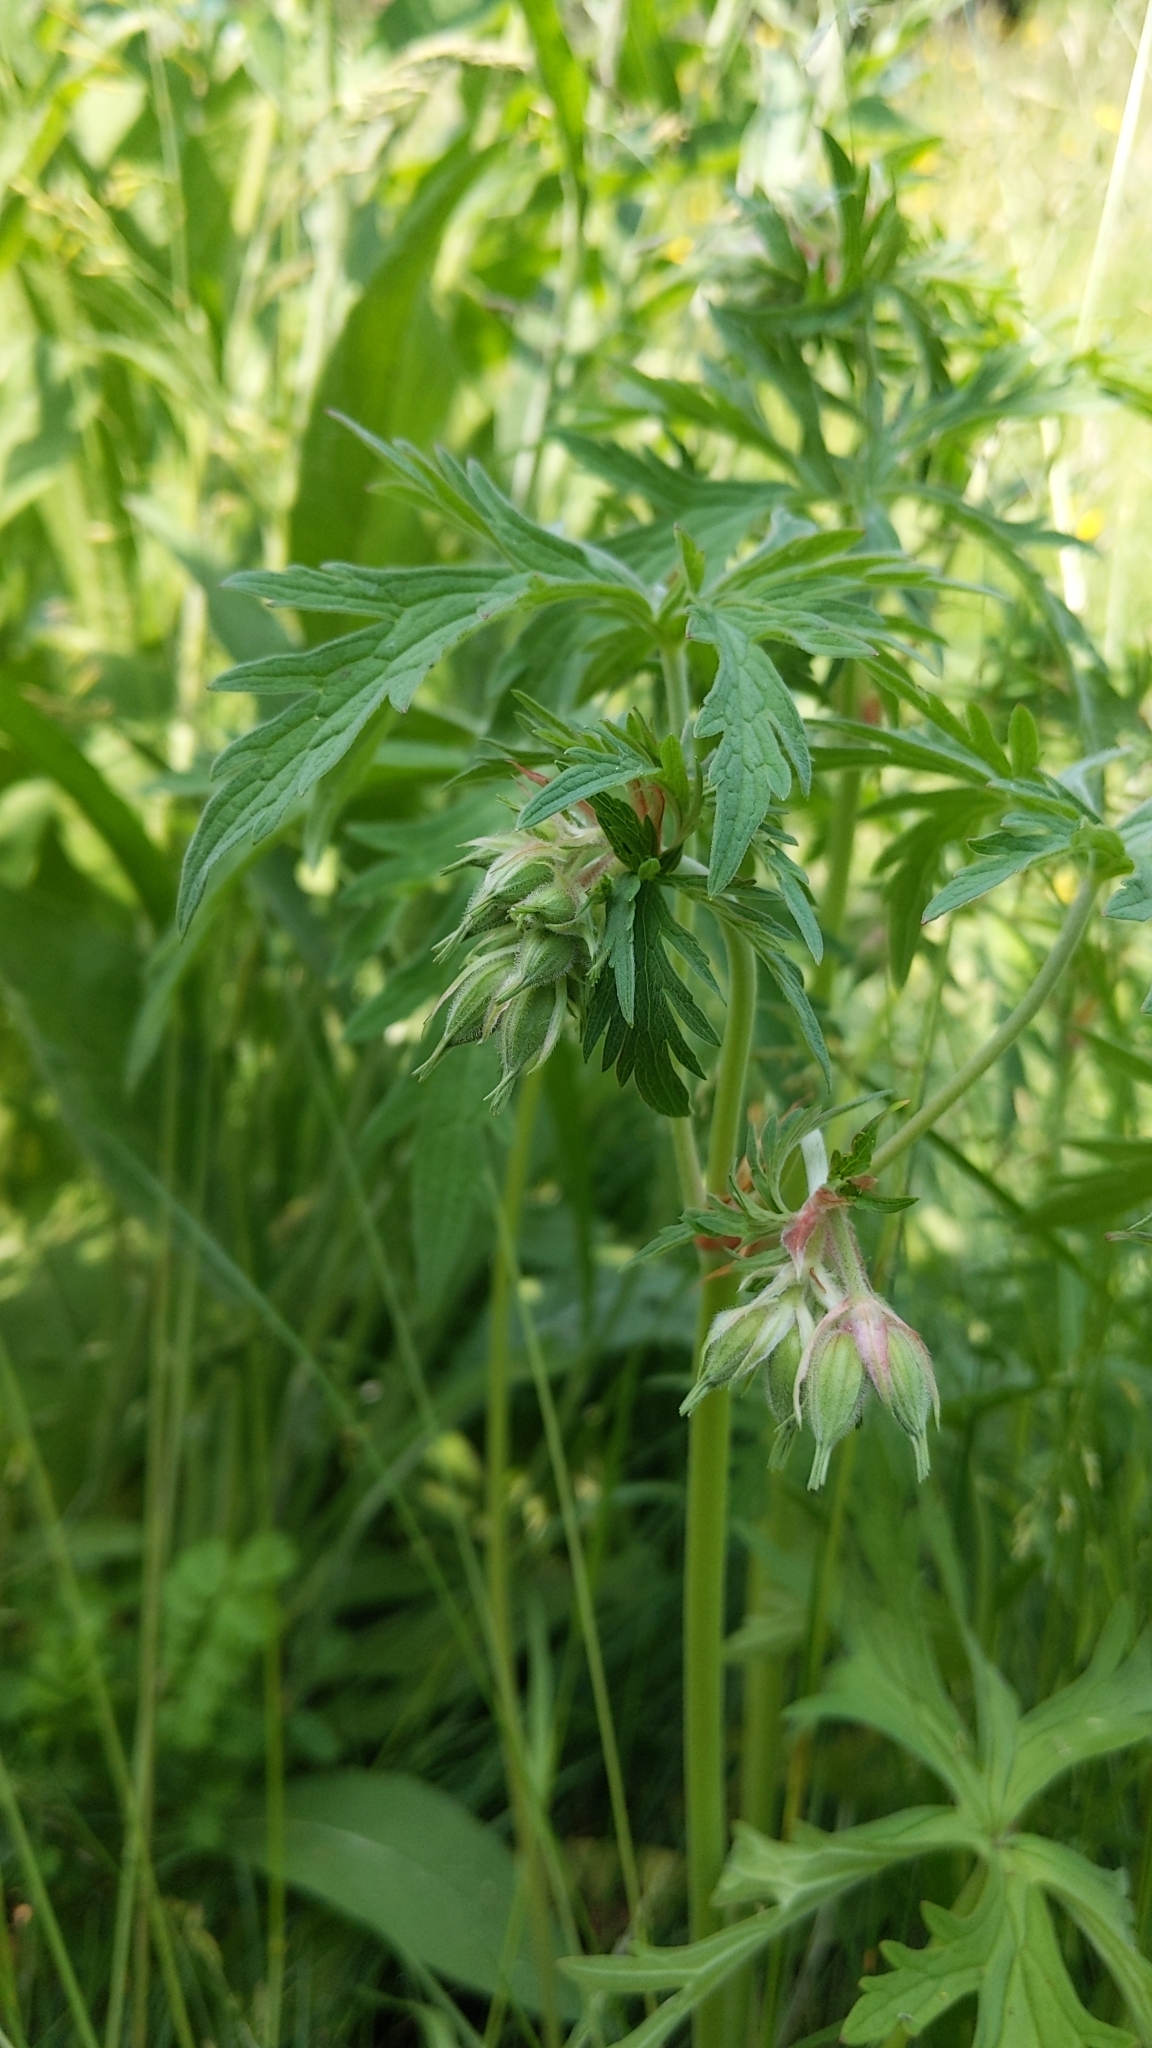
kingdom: Plantae
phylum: Tracheophyta
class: Magnoliopsida
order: Geraniales
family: Geraniaceae
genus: Geranium
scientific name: Geranium pratense
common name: Meadow crane's-bill
